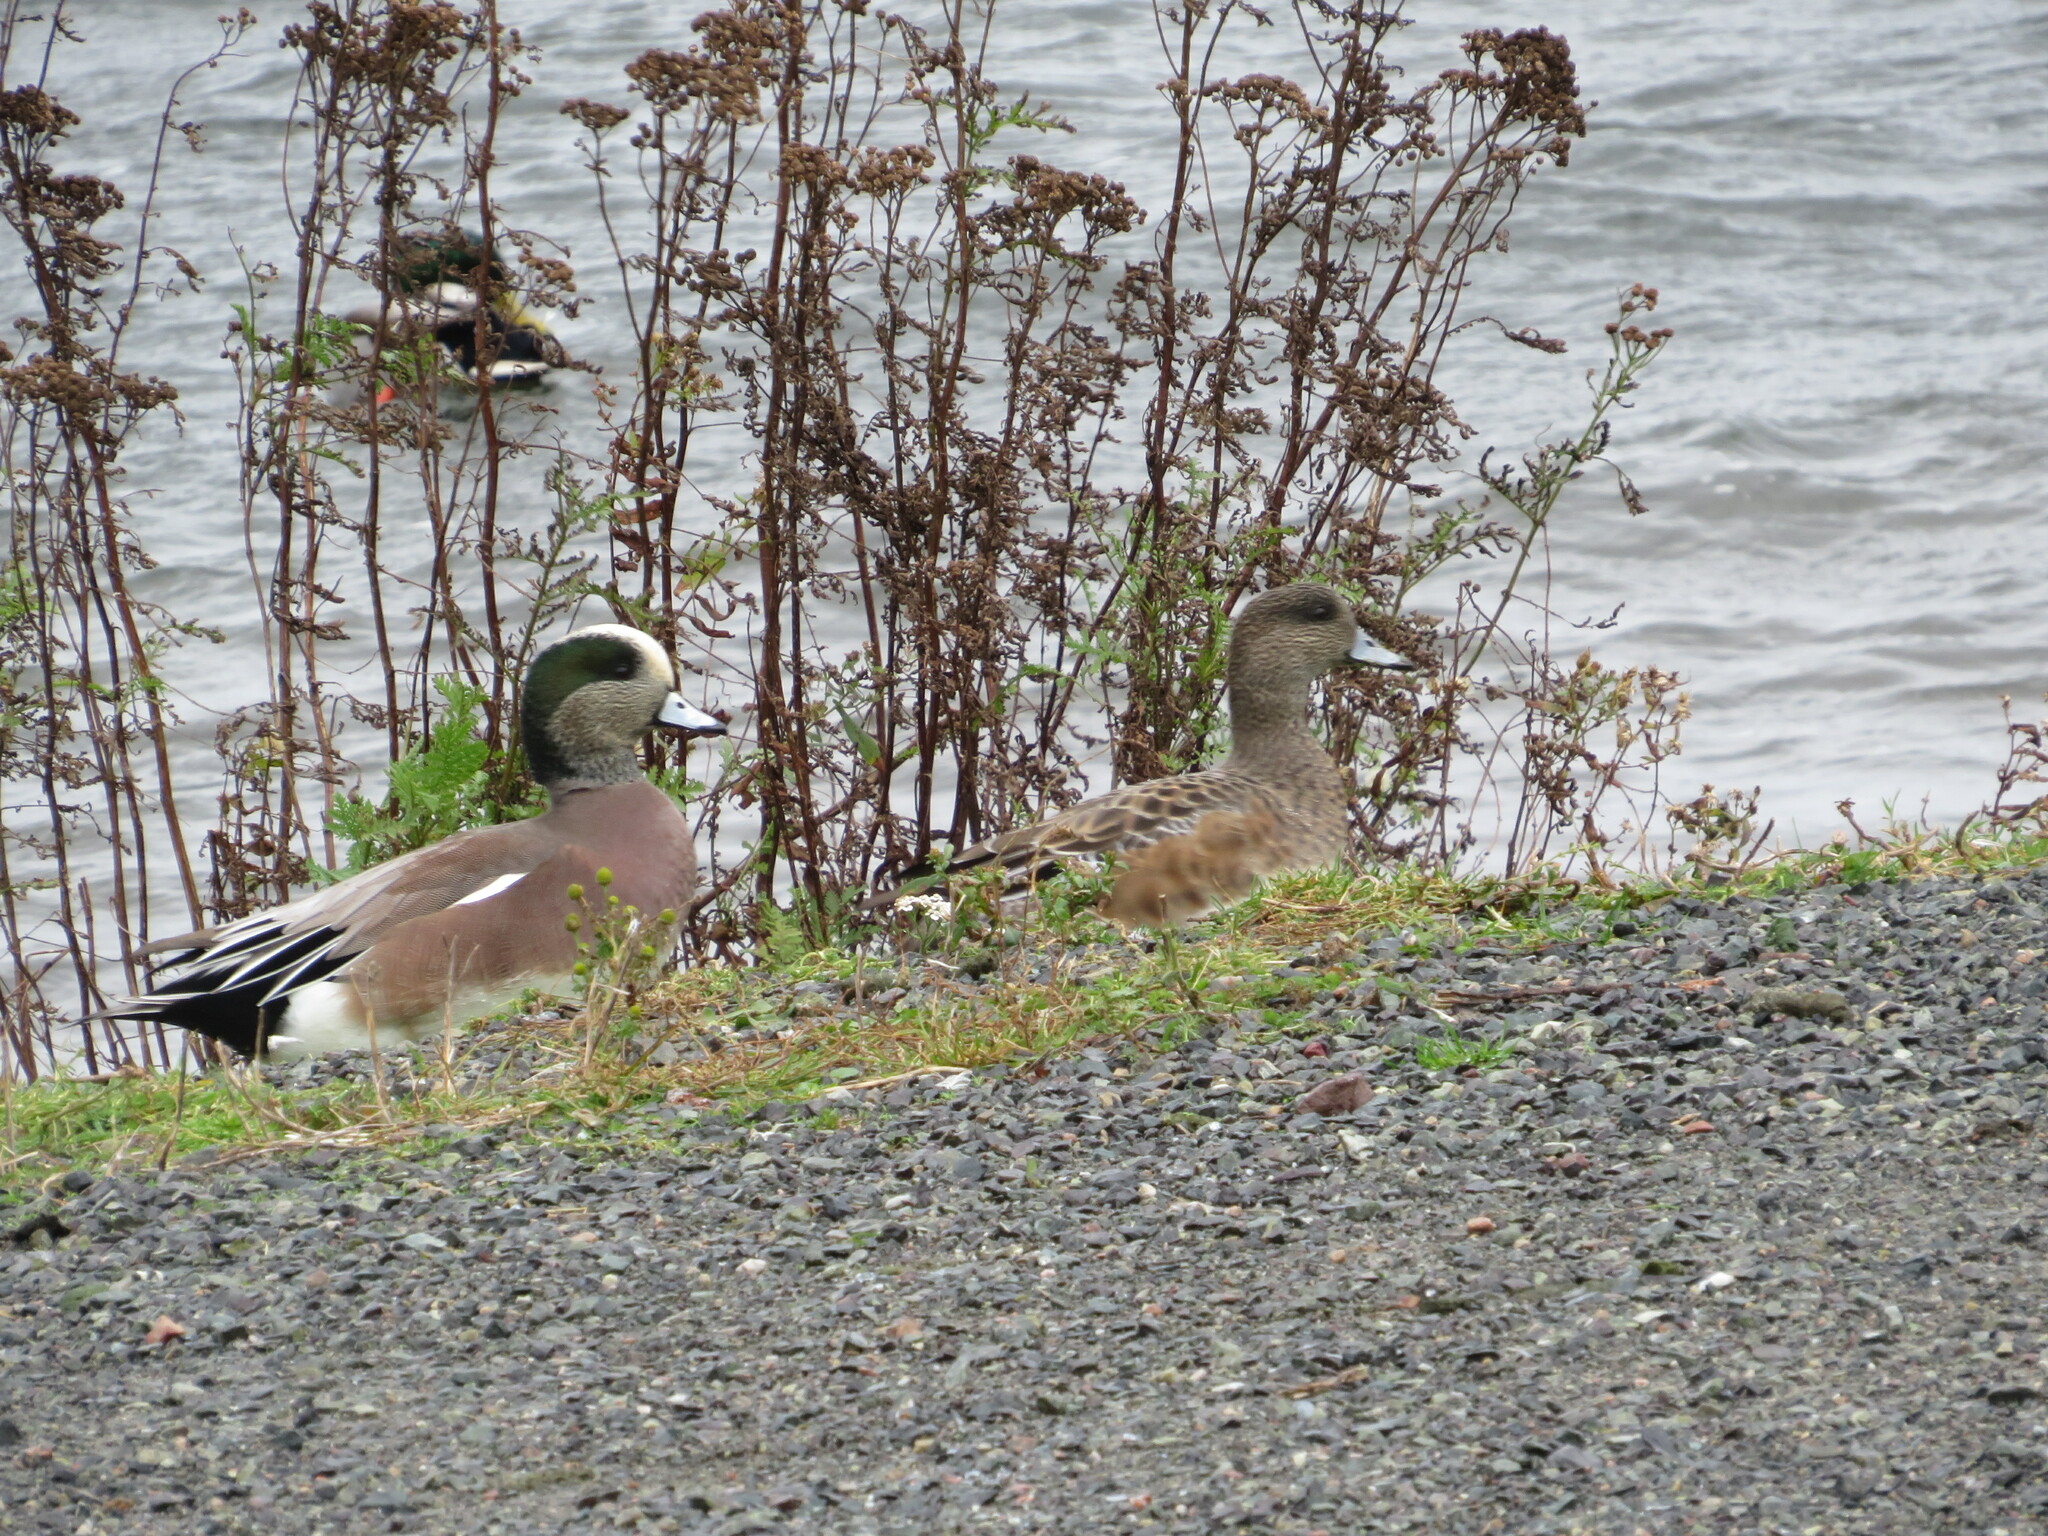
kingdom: Animalia
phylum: Chordata
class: Aves
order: Anseriformes
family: Anatidae
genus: Mareca
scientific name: Mareca americana
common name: American wigeon
